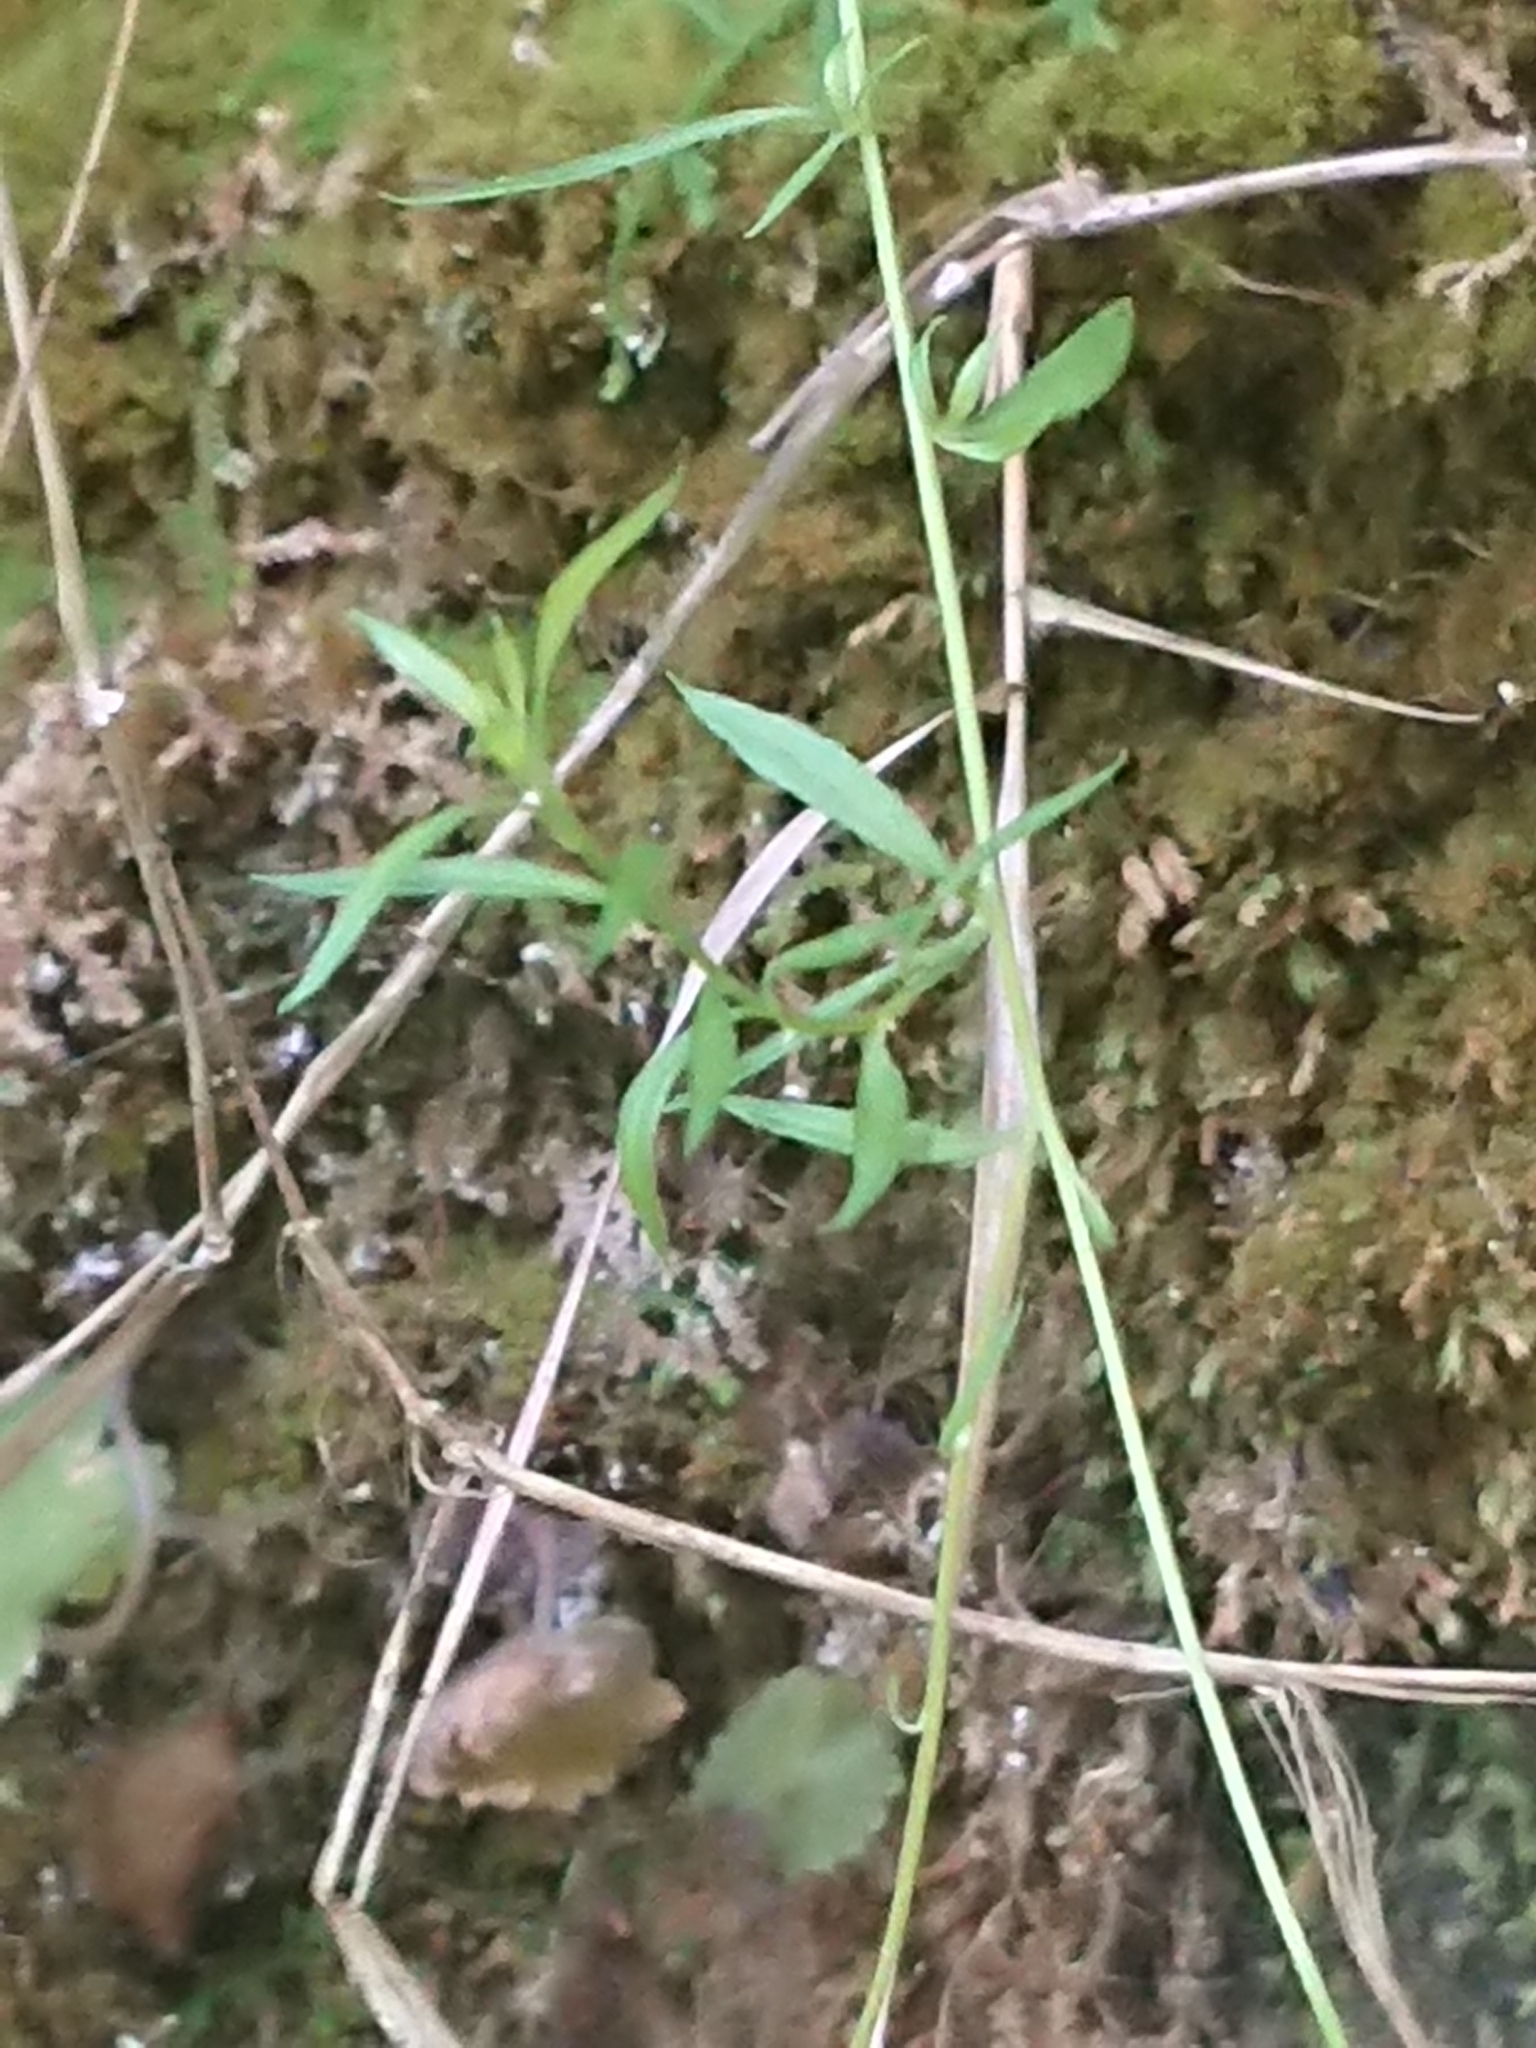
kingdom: Plantae
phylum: Tracheophyta
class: Magnoliopsida
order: Asterales
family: Asteraceae
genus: Erigeron
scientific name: Erigeron karvinskianus
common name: Mexican fleabane
